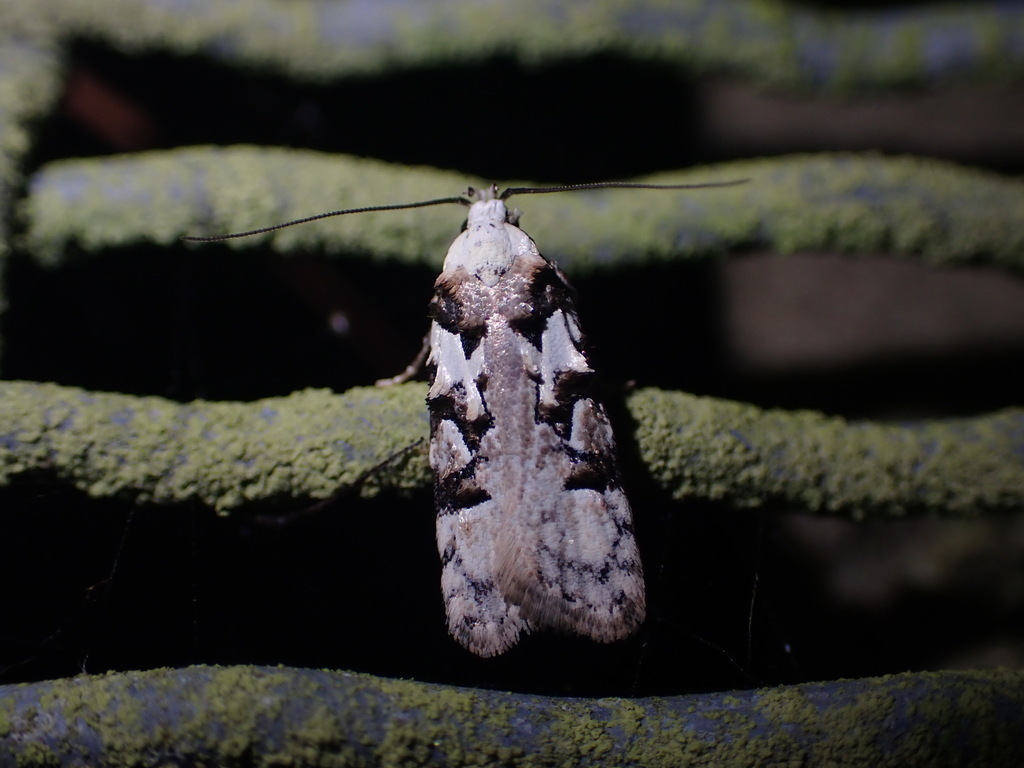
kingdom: Animalia
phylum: Arthropoda
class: Insecta
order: Lepidoptera
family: Oecophoridae
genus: Izatha
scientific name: Izatha epiphanes
